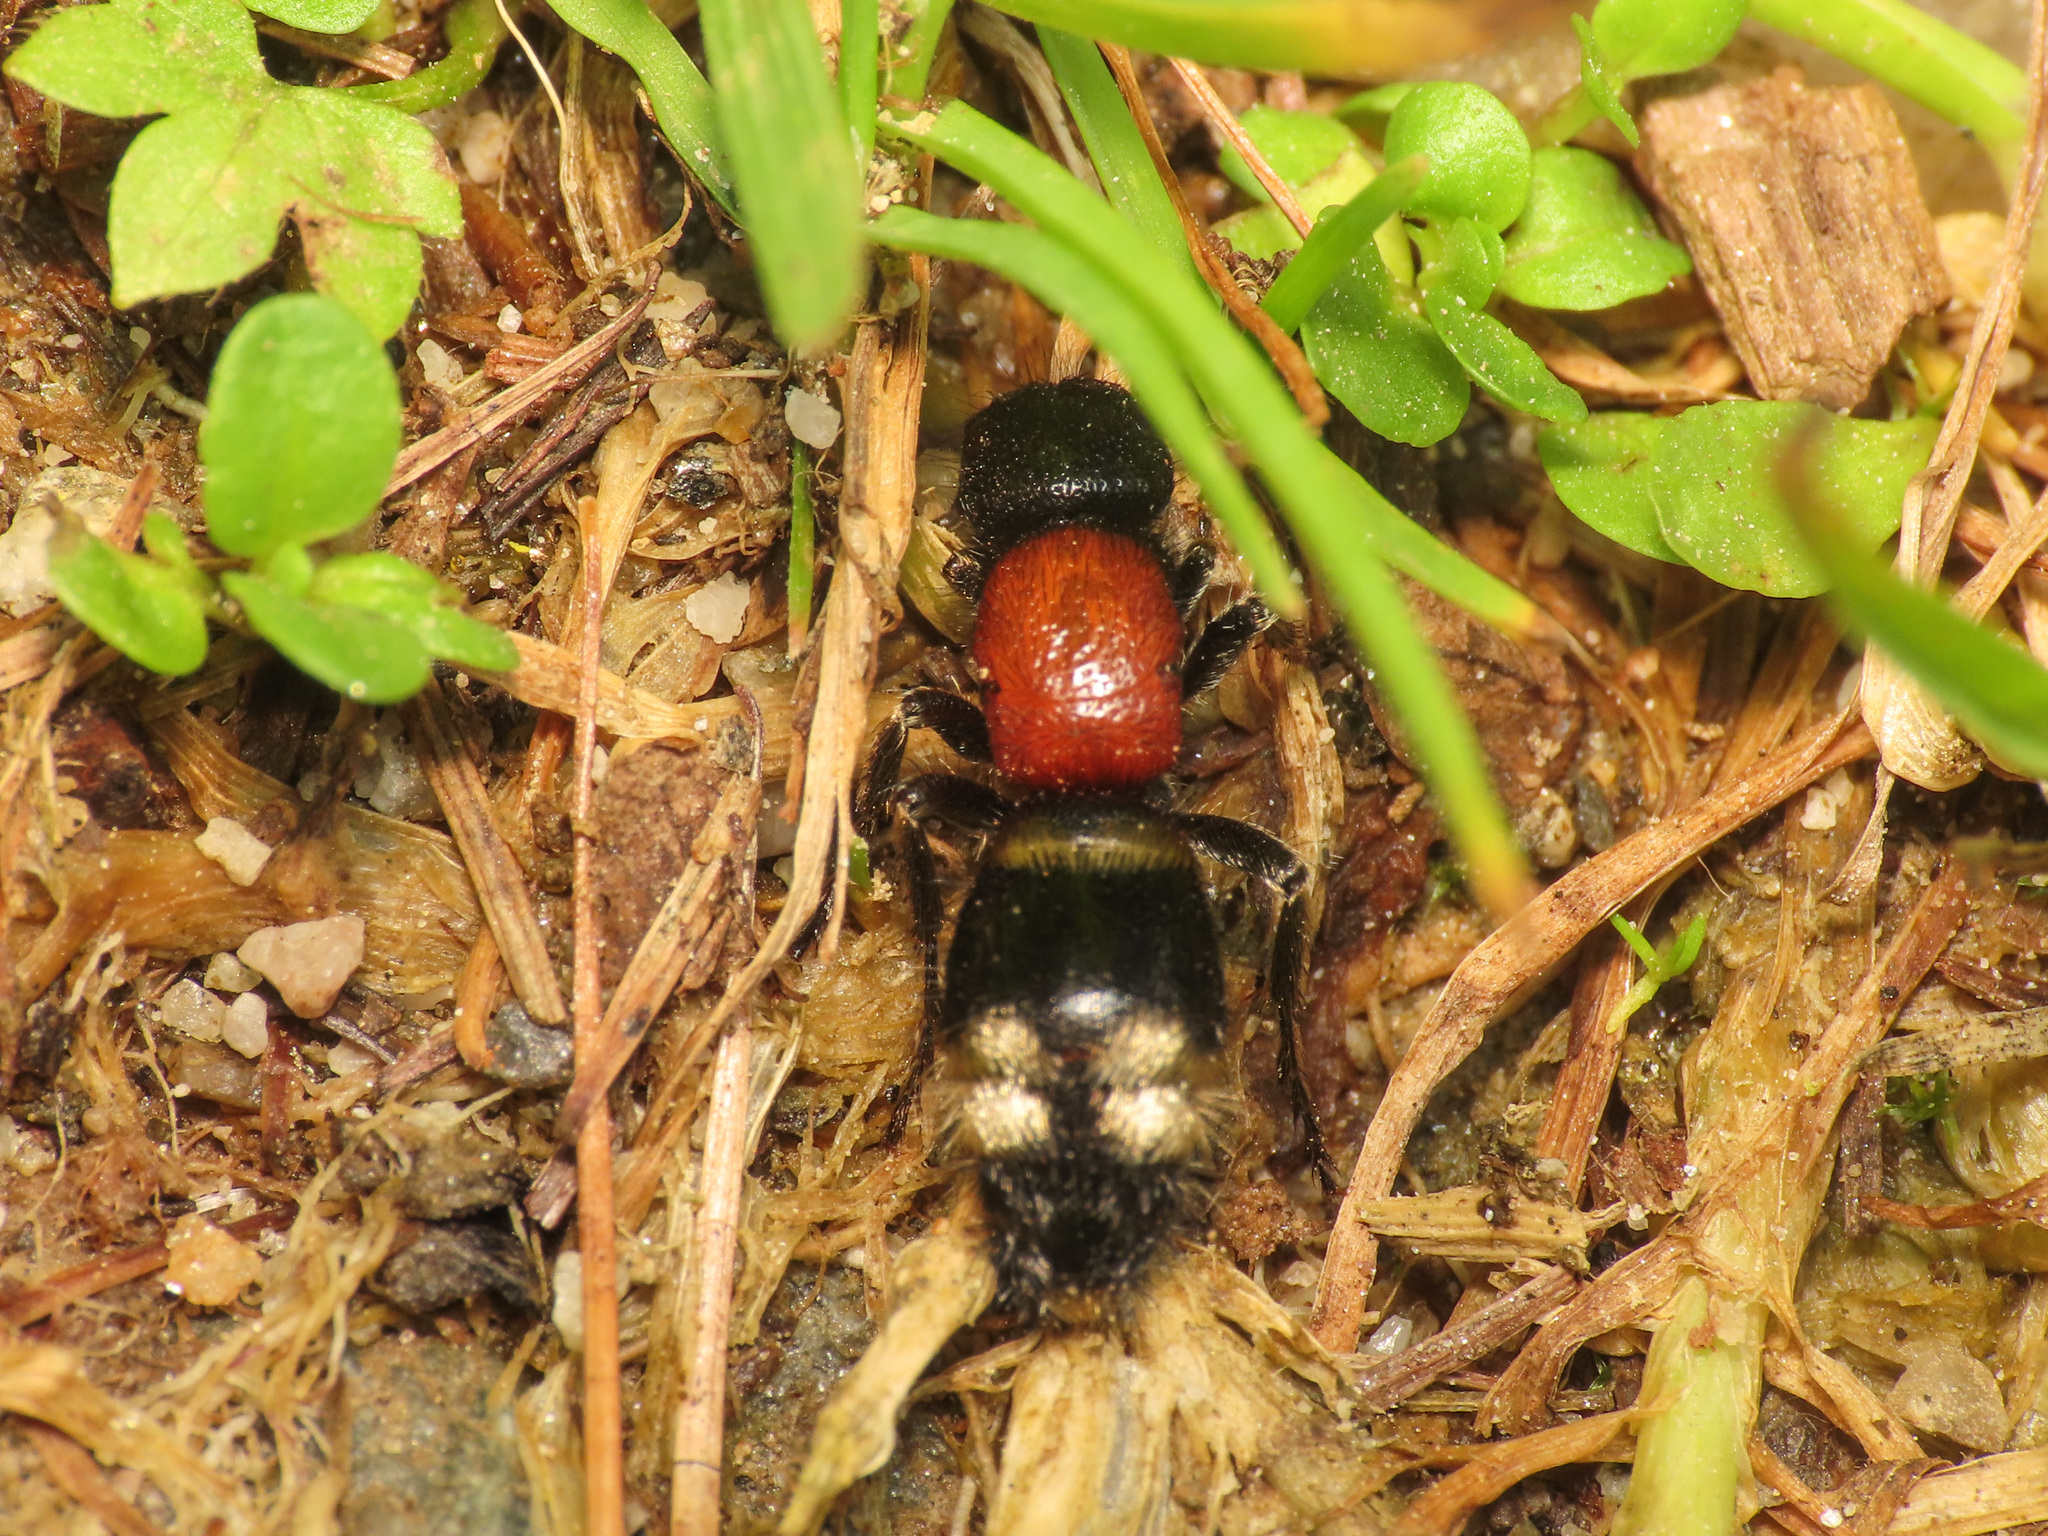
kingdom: Animalia
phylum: Arthropoda
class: Insecta
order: Hymenoptera
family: Mutillidae
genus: Mutilla
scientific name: Mutilla europaea
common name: Large velvet ant
